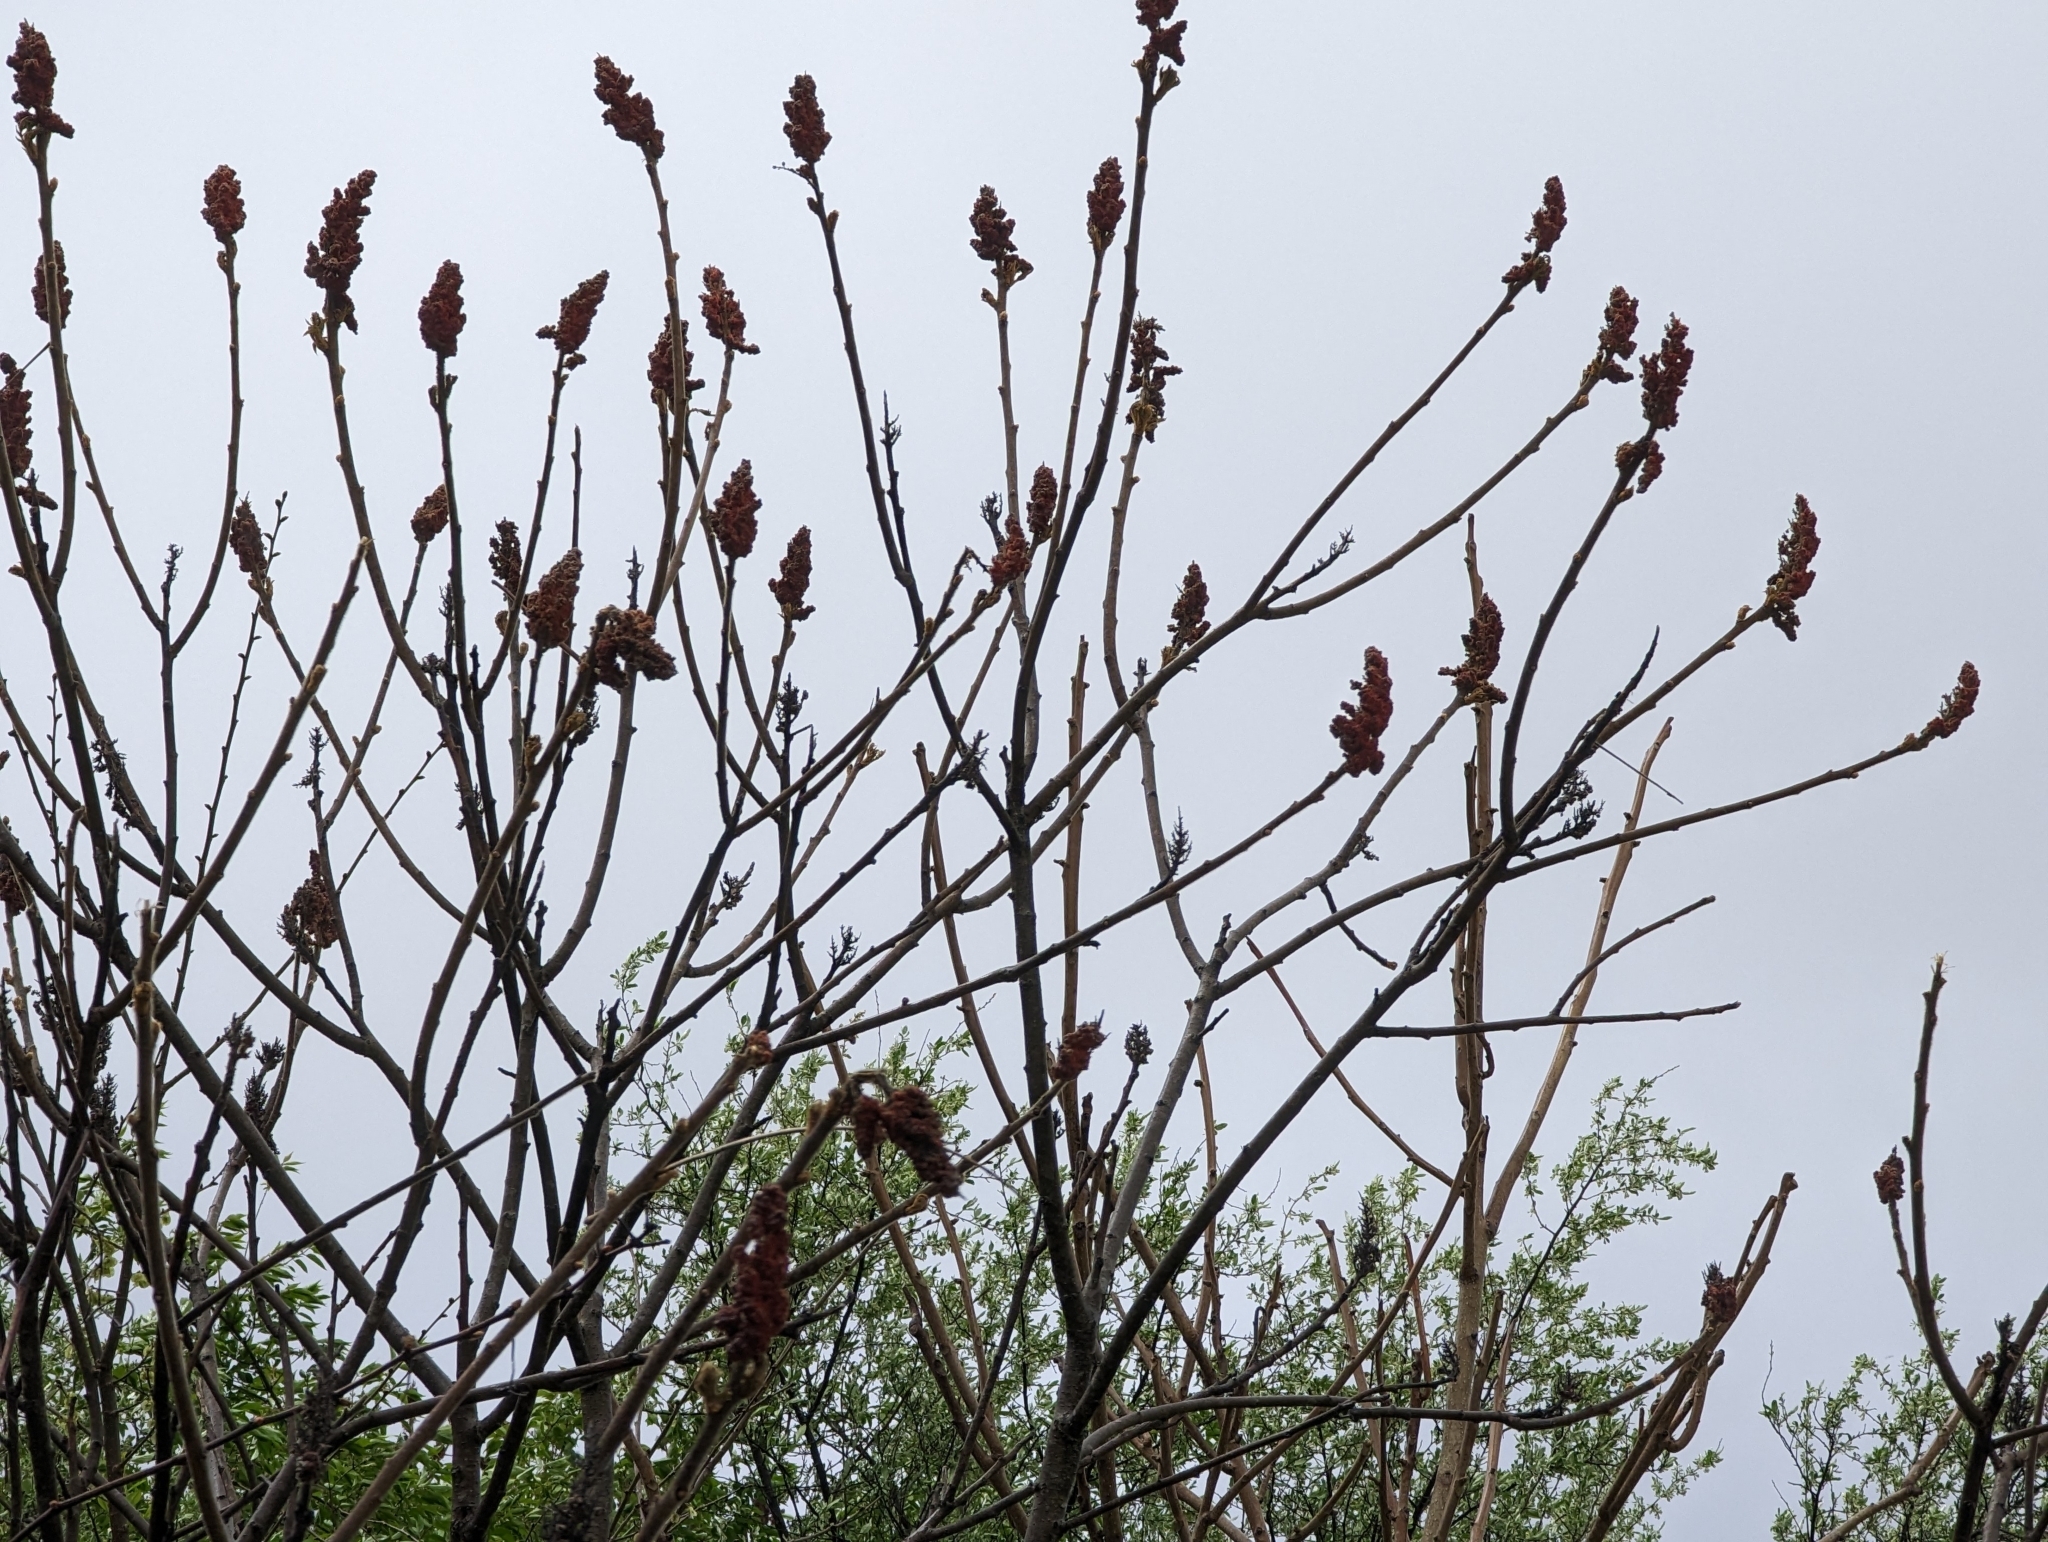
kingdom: Plantae
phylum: Tracheophyta
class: Magnoliopsida
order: Sapindales
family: Anacardiaceae
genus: Rhus
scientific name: Rhus typhina
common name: Staghorn sumac
